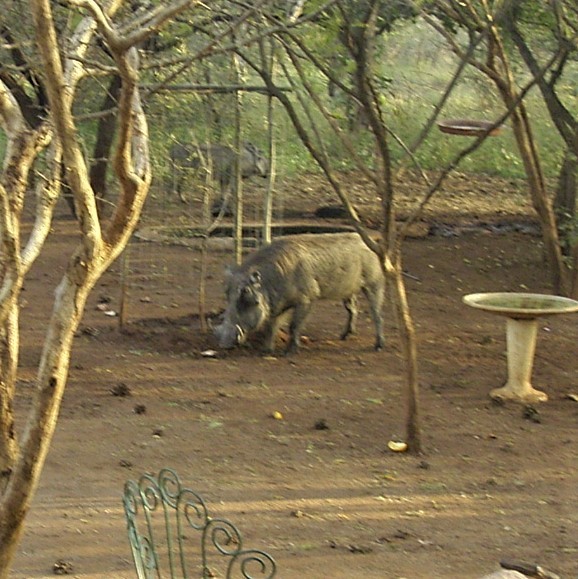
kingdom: Animalia
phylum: Chordata
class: Mammalia
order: Artiodactyla
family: Suidae
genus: Phacochoerus
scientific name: Phacochoerus africanus
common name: Common warthog
